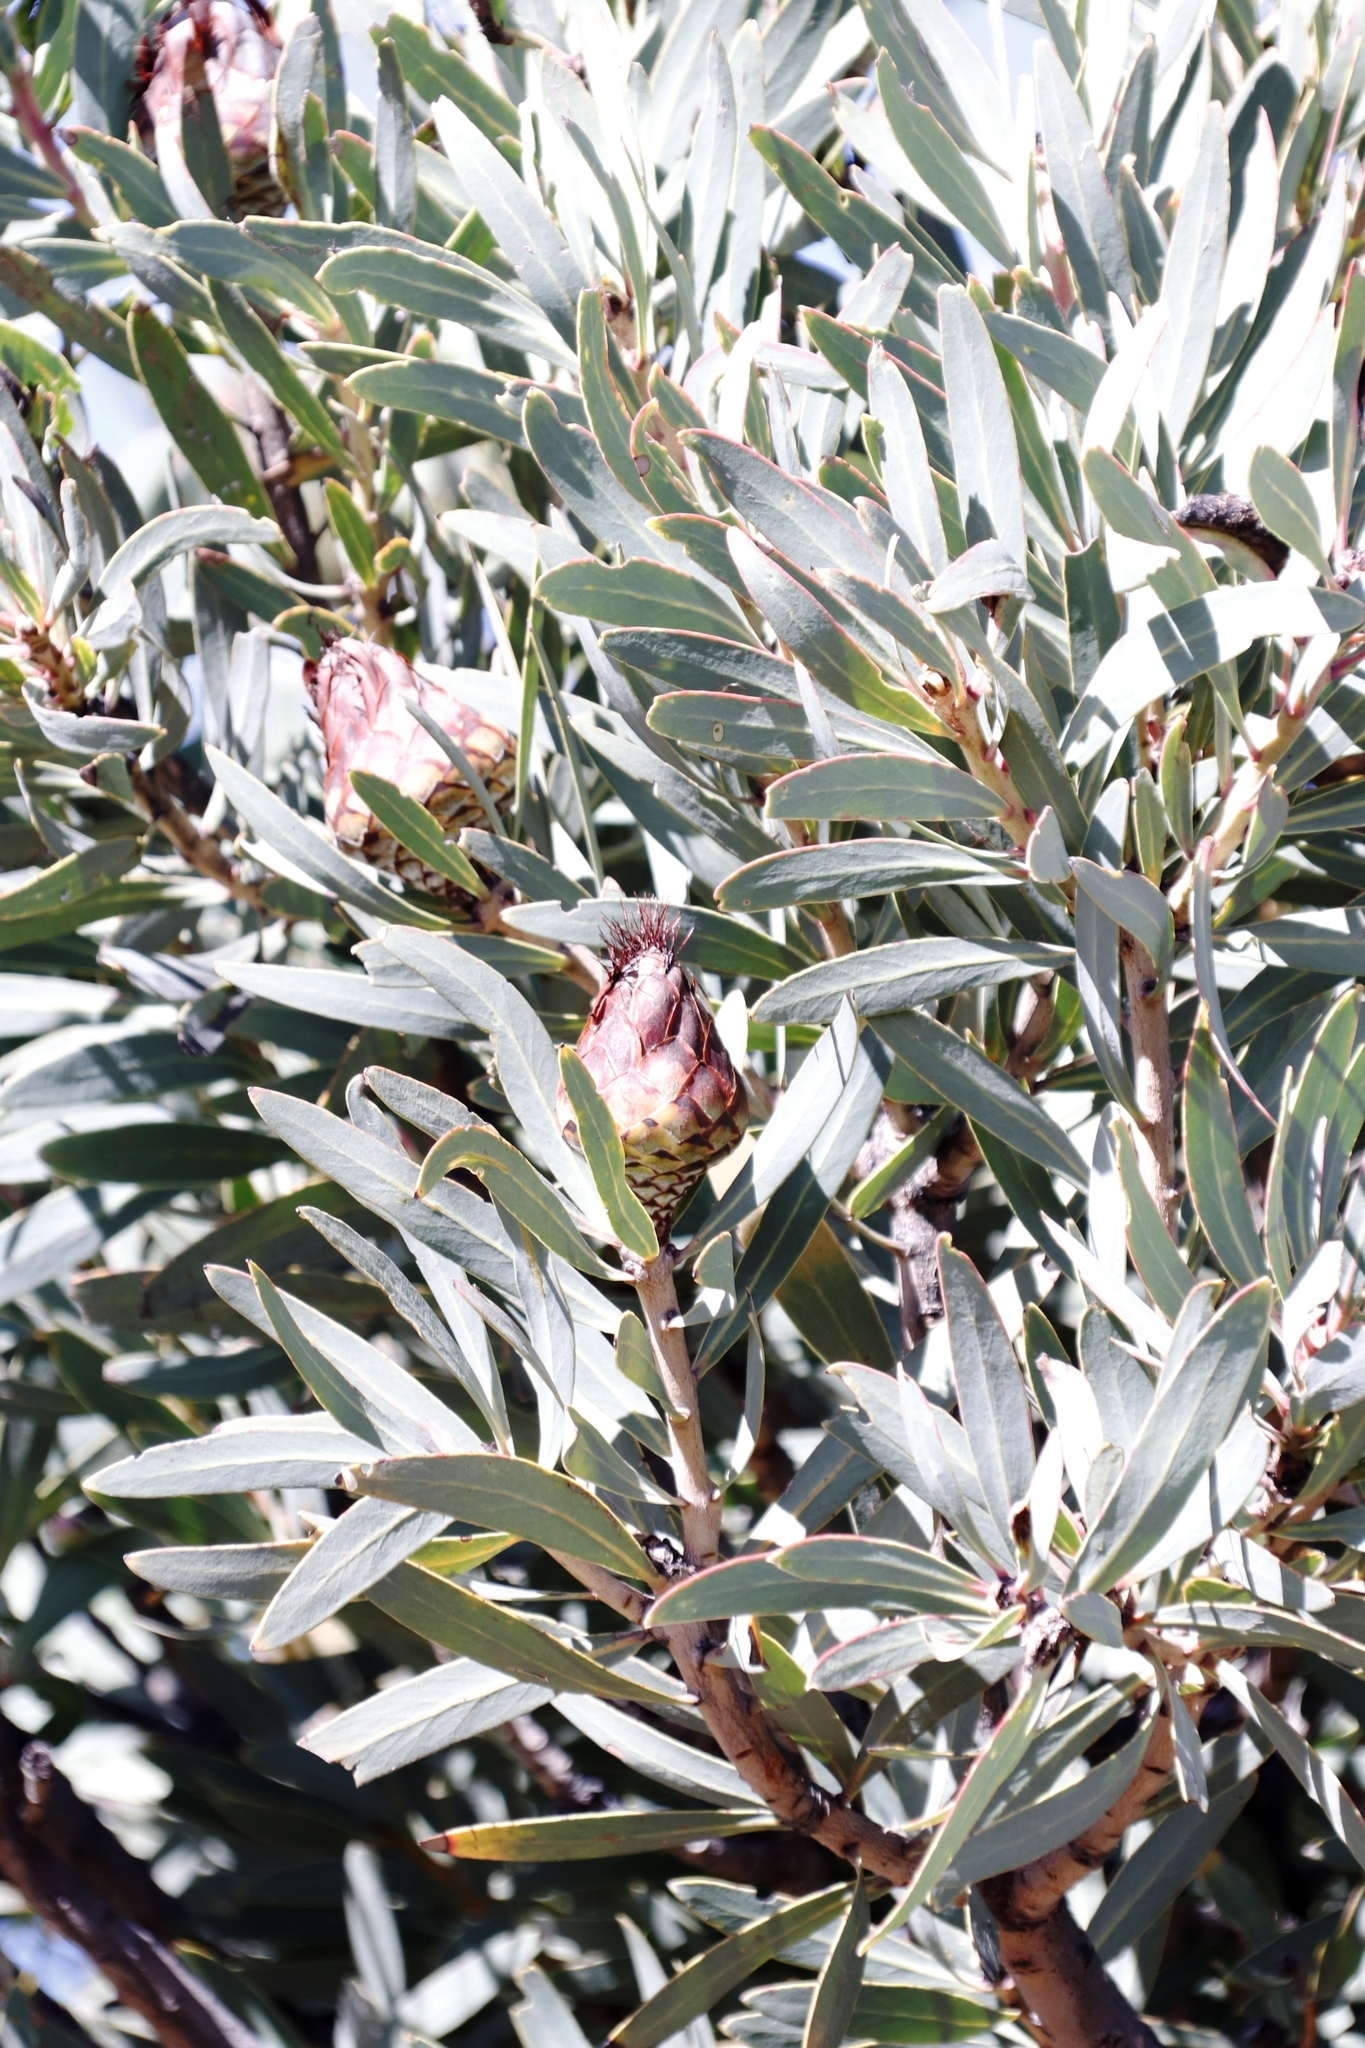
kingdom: Plantae
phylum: Tracheophyta
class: Magnoliopsida
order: Proteales
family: Proteaceae
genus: Protea
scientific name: Protea caffra
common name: Common sugarbush
